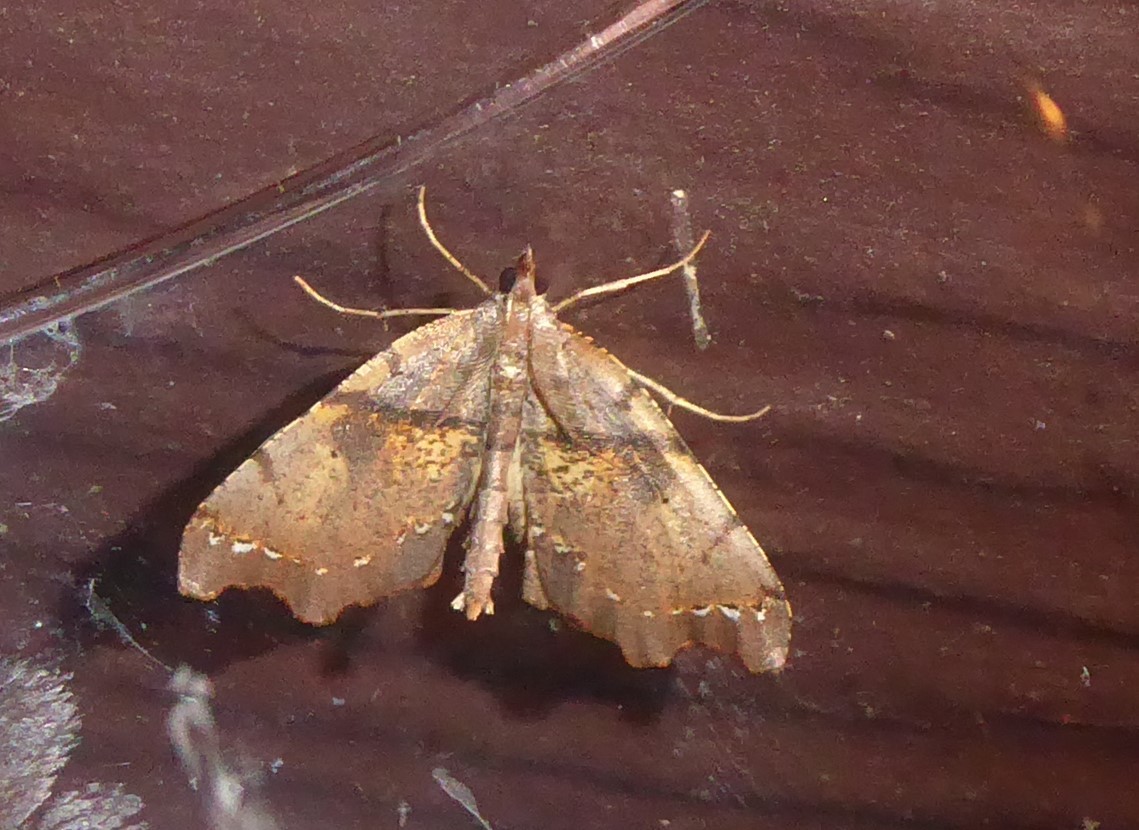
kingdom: Animalia
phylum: Arthropoda
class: Insecta
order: Lepidoptera
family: Geometridae
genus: Chalastra
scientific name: Chalastra pellurgata
